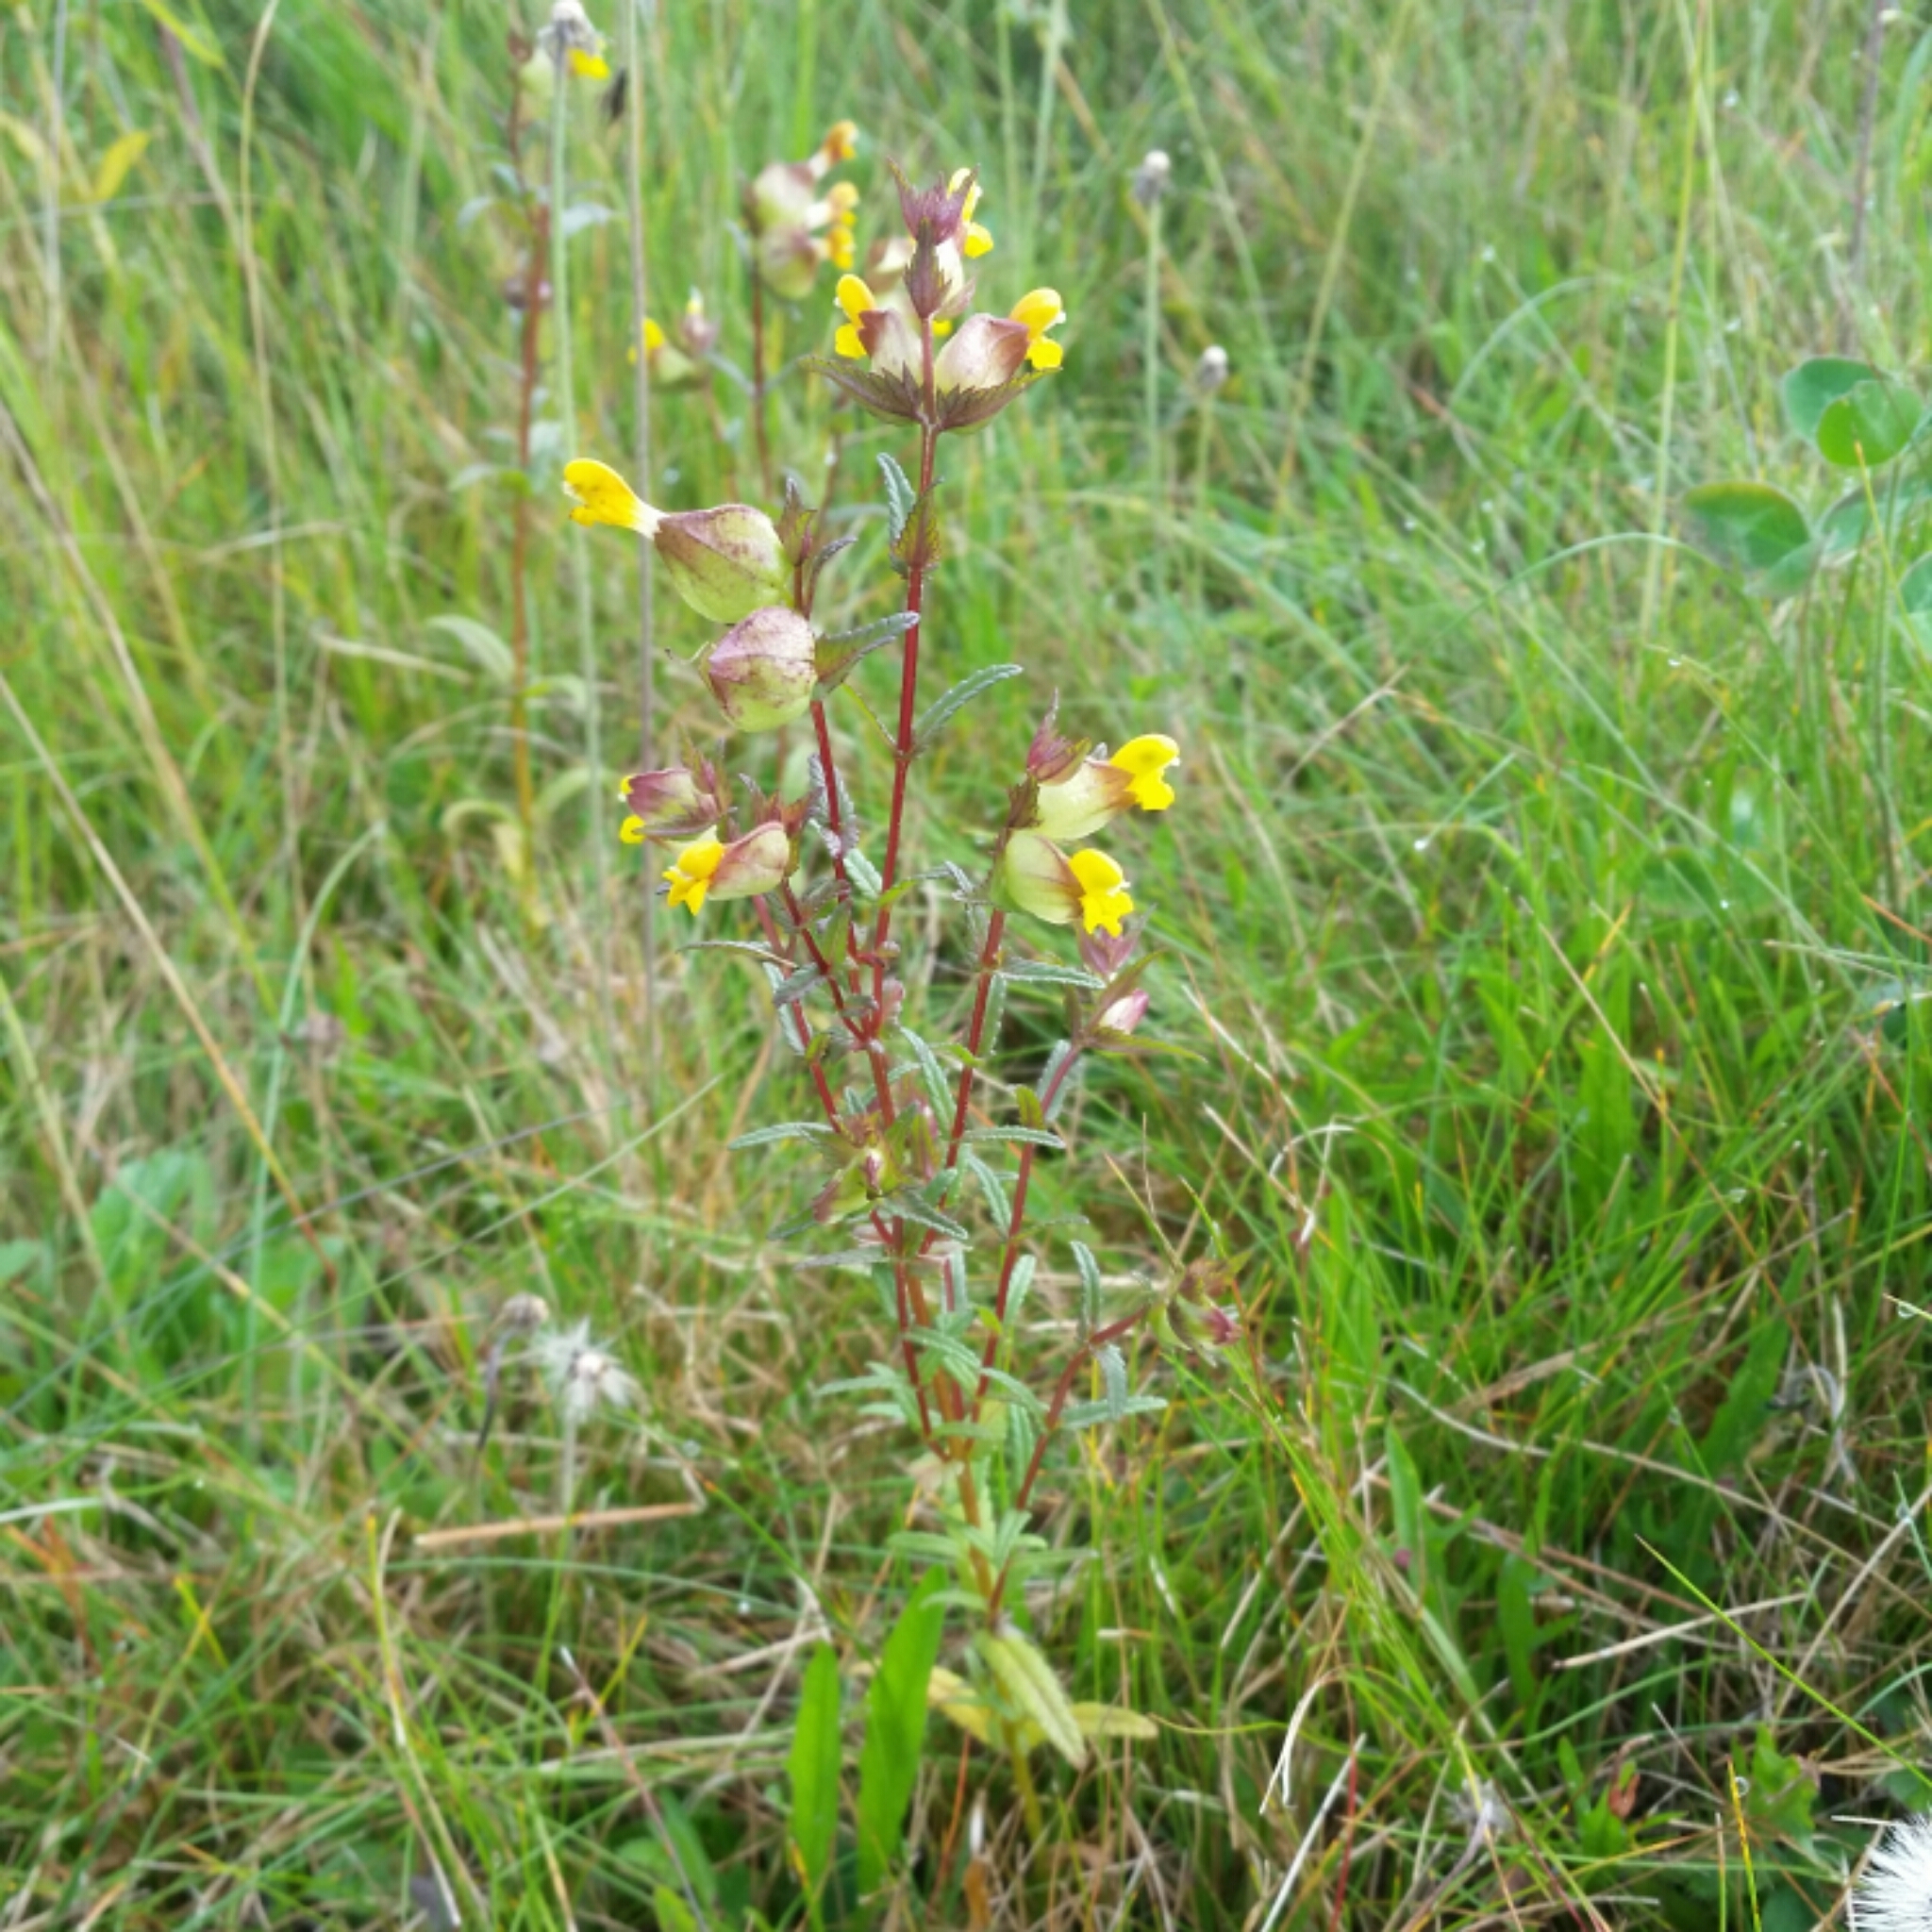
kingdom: Plantae
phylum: Tracheophyta
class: Magnoliopsida
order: Lamiales
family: Orobanchaceae
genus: Rhinanthus
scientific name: Rhinanthus minor
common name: Yellow-rattle
